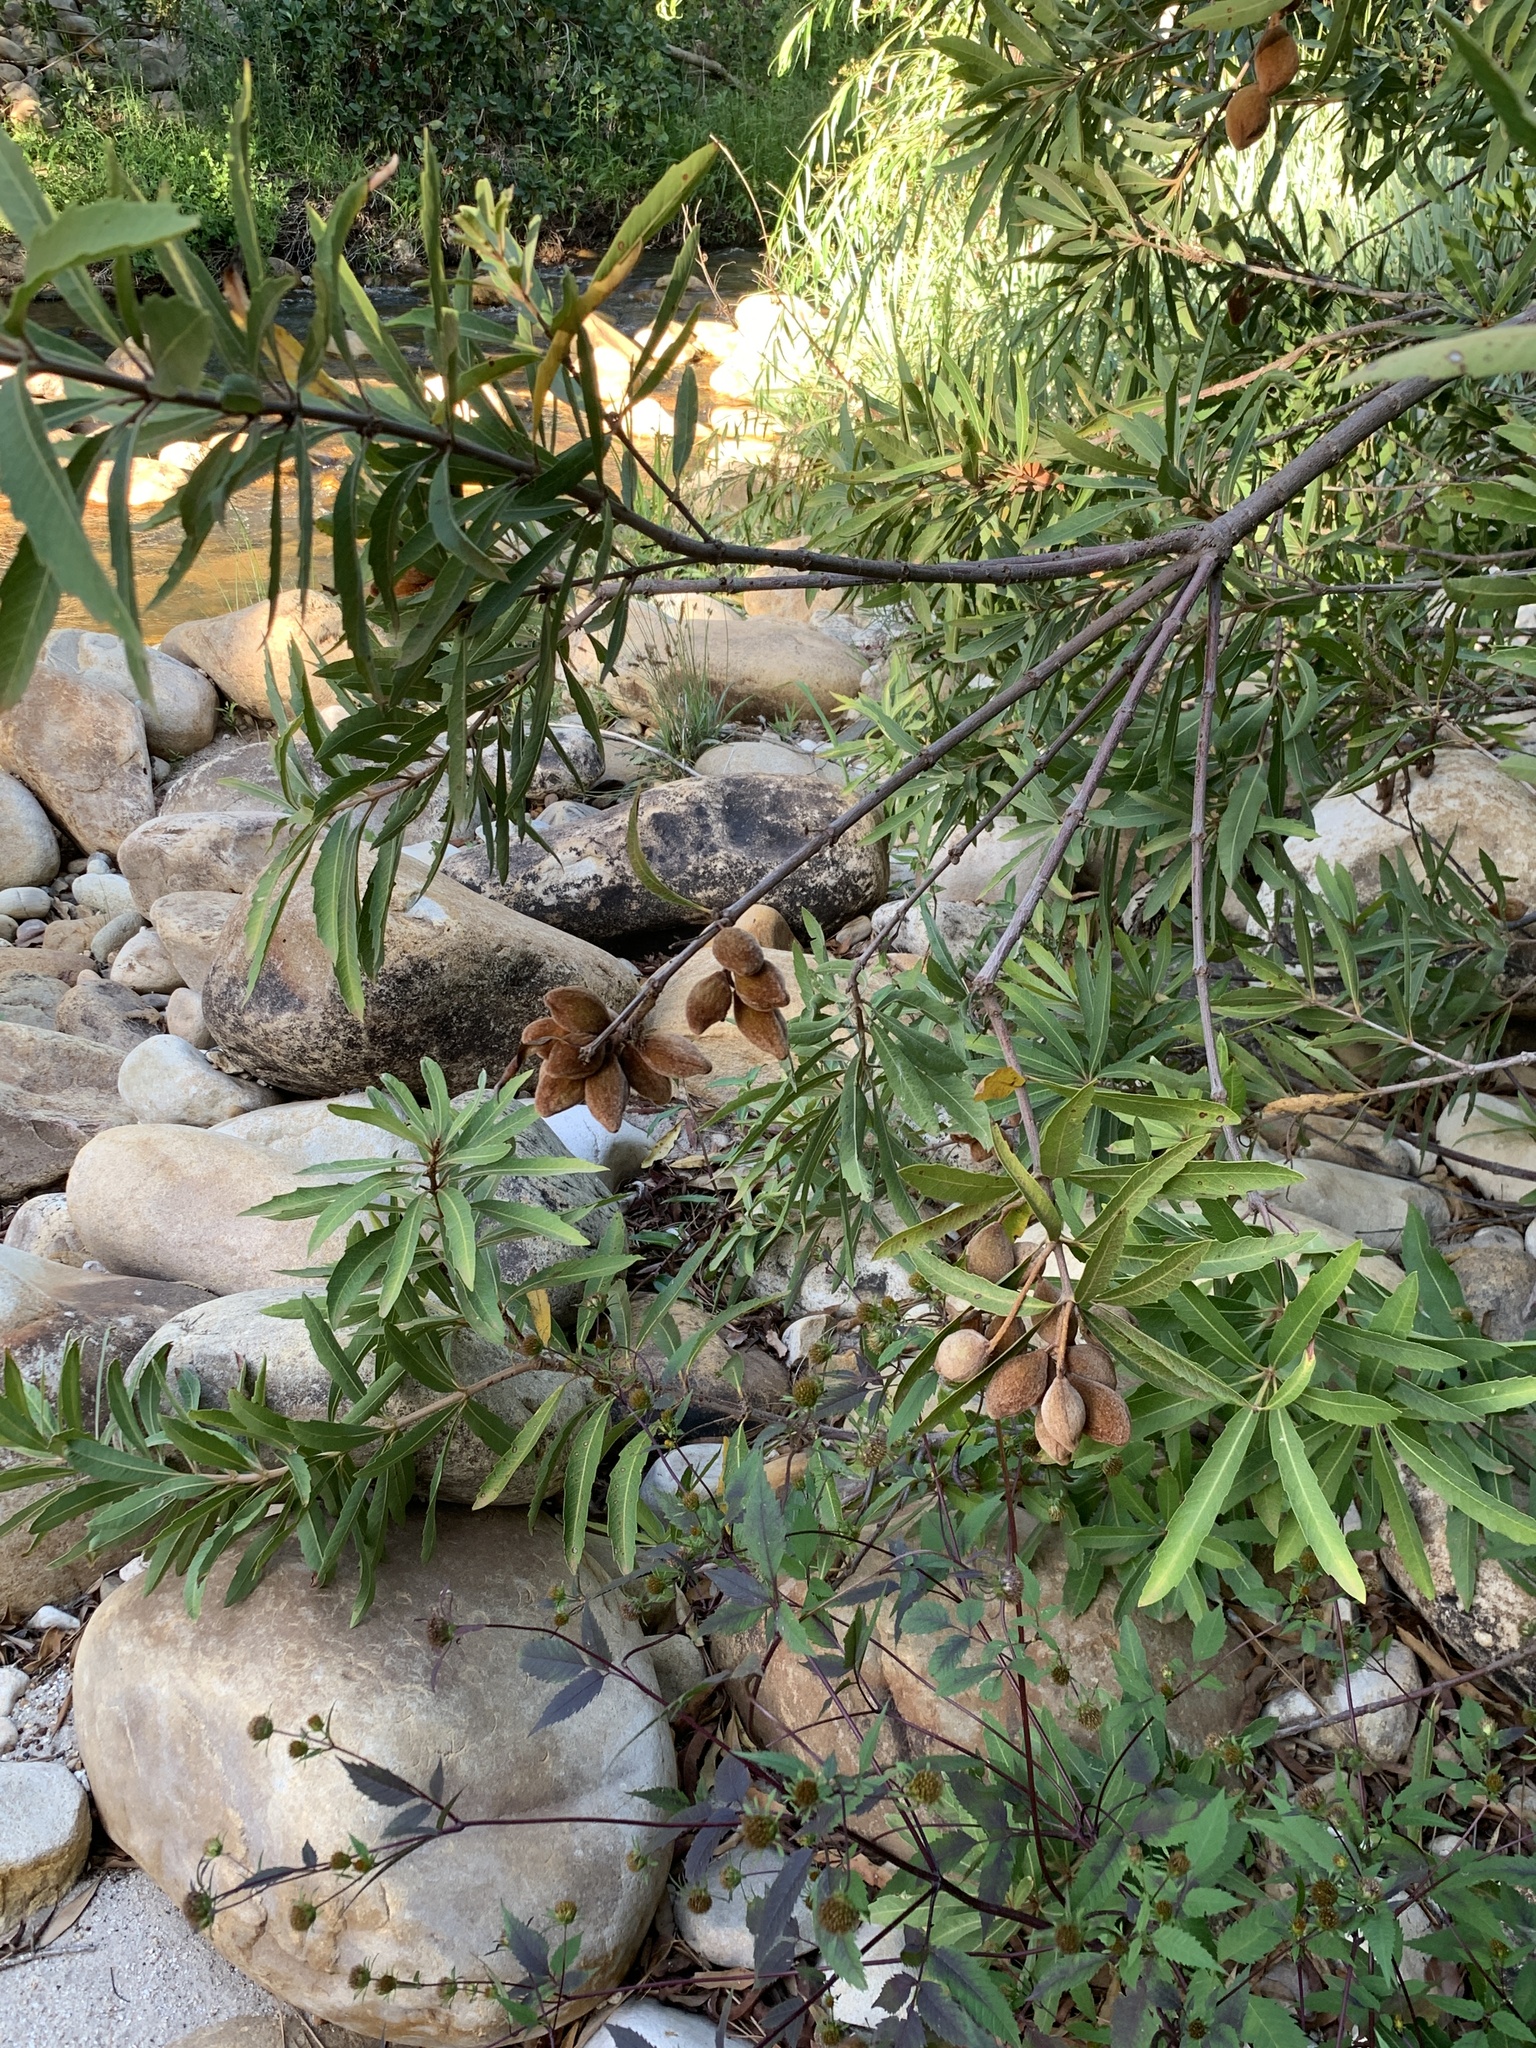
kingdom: Plantae
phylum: Tracheophyta
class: Magnoliopsida
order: Proteales
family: Proteaceae
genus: Brabejum
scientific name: Brabejum stellatifolium
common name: Wild almond
